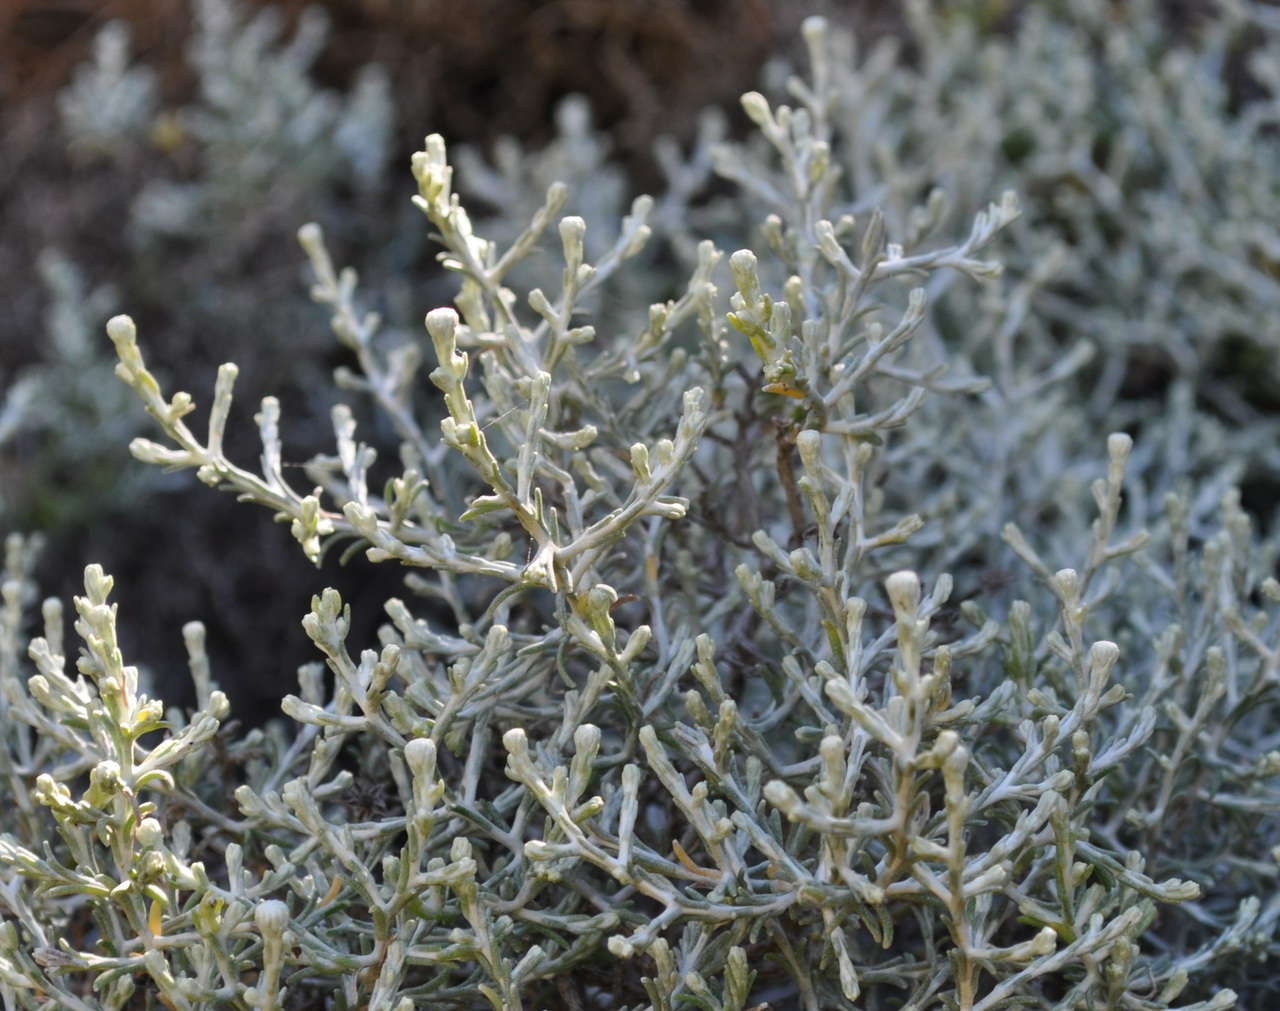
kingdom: Plantae
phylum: Tracheophyta
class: Magnoliopsida
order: Asterales
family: Asteraceae
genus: Calocephalus
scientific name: Calocephalus brownii
